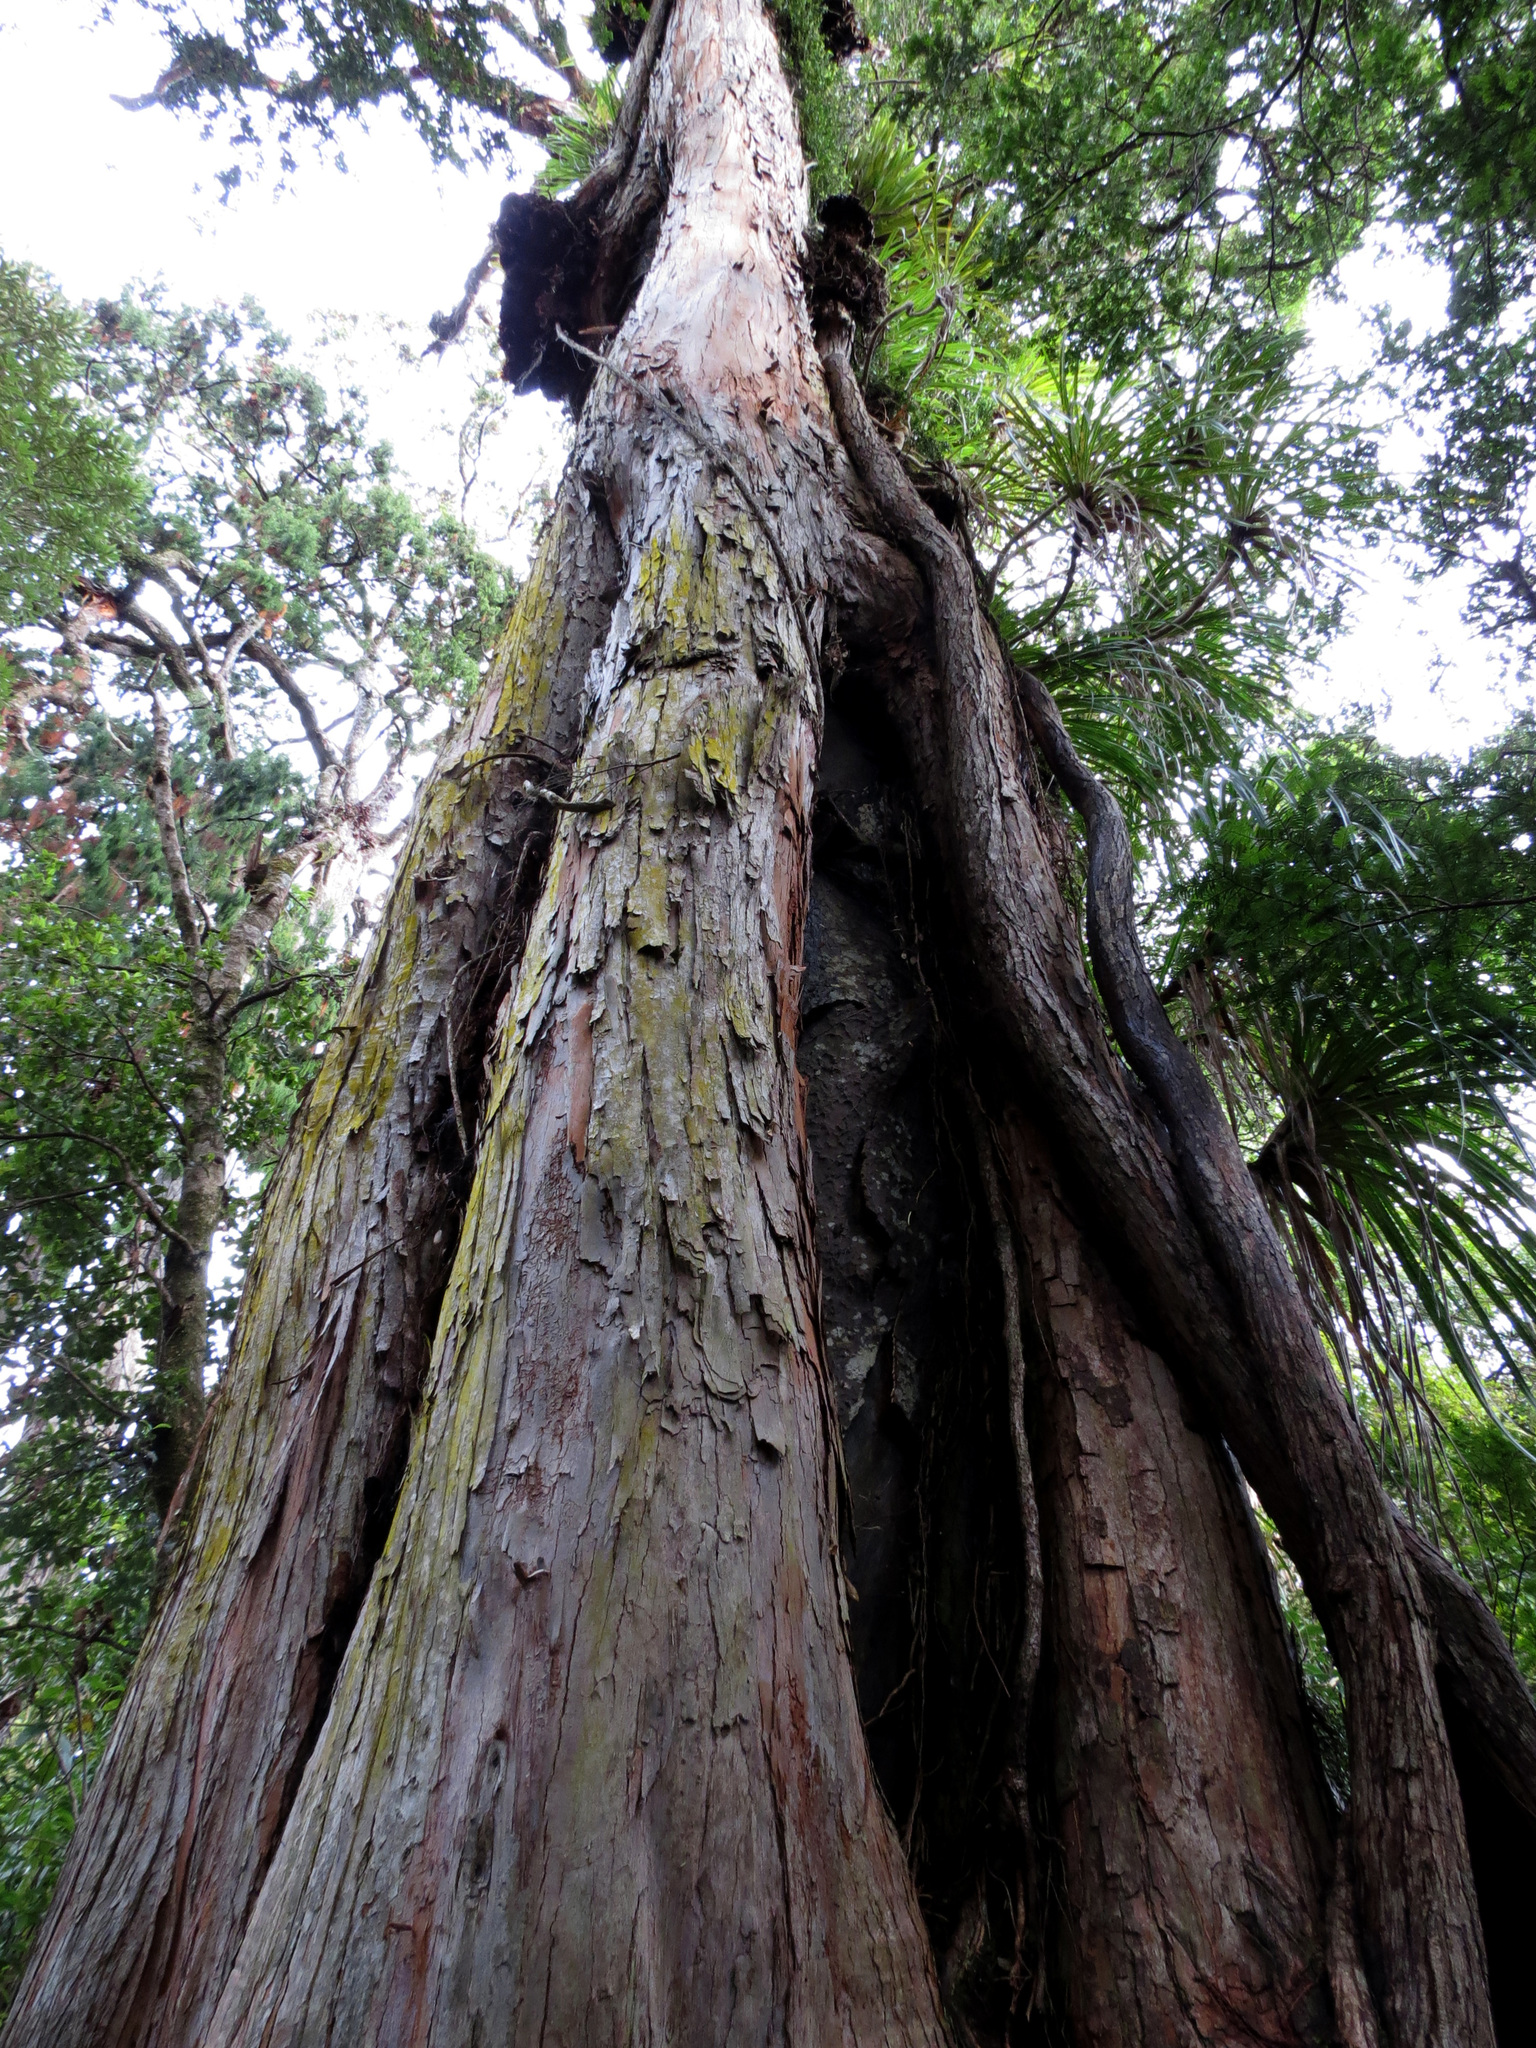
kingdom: Plantae
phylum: Tracheophyta
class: Pinopsida
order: Pinales
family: Podocarpaceae
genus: Podocarpus
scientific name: Podocarpus totara
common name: Totara
